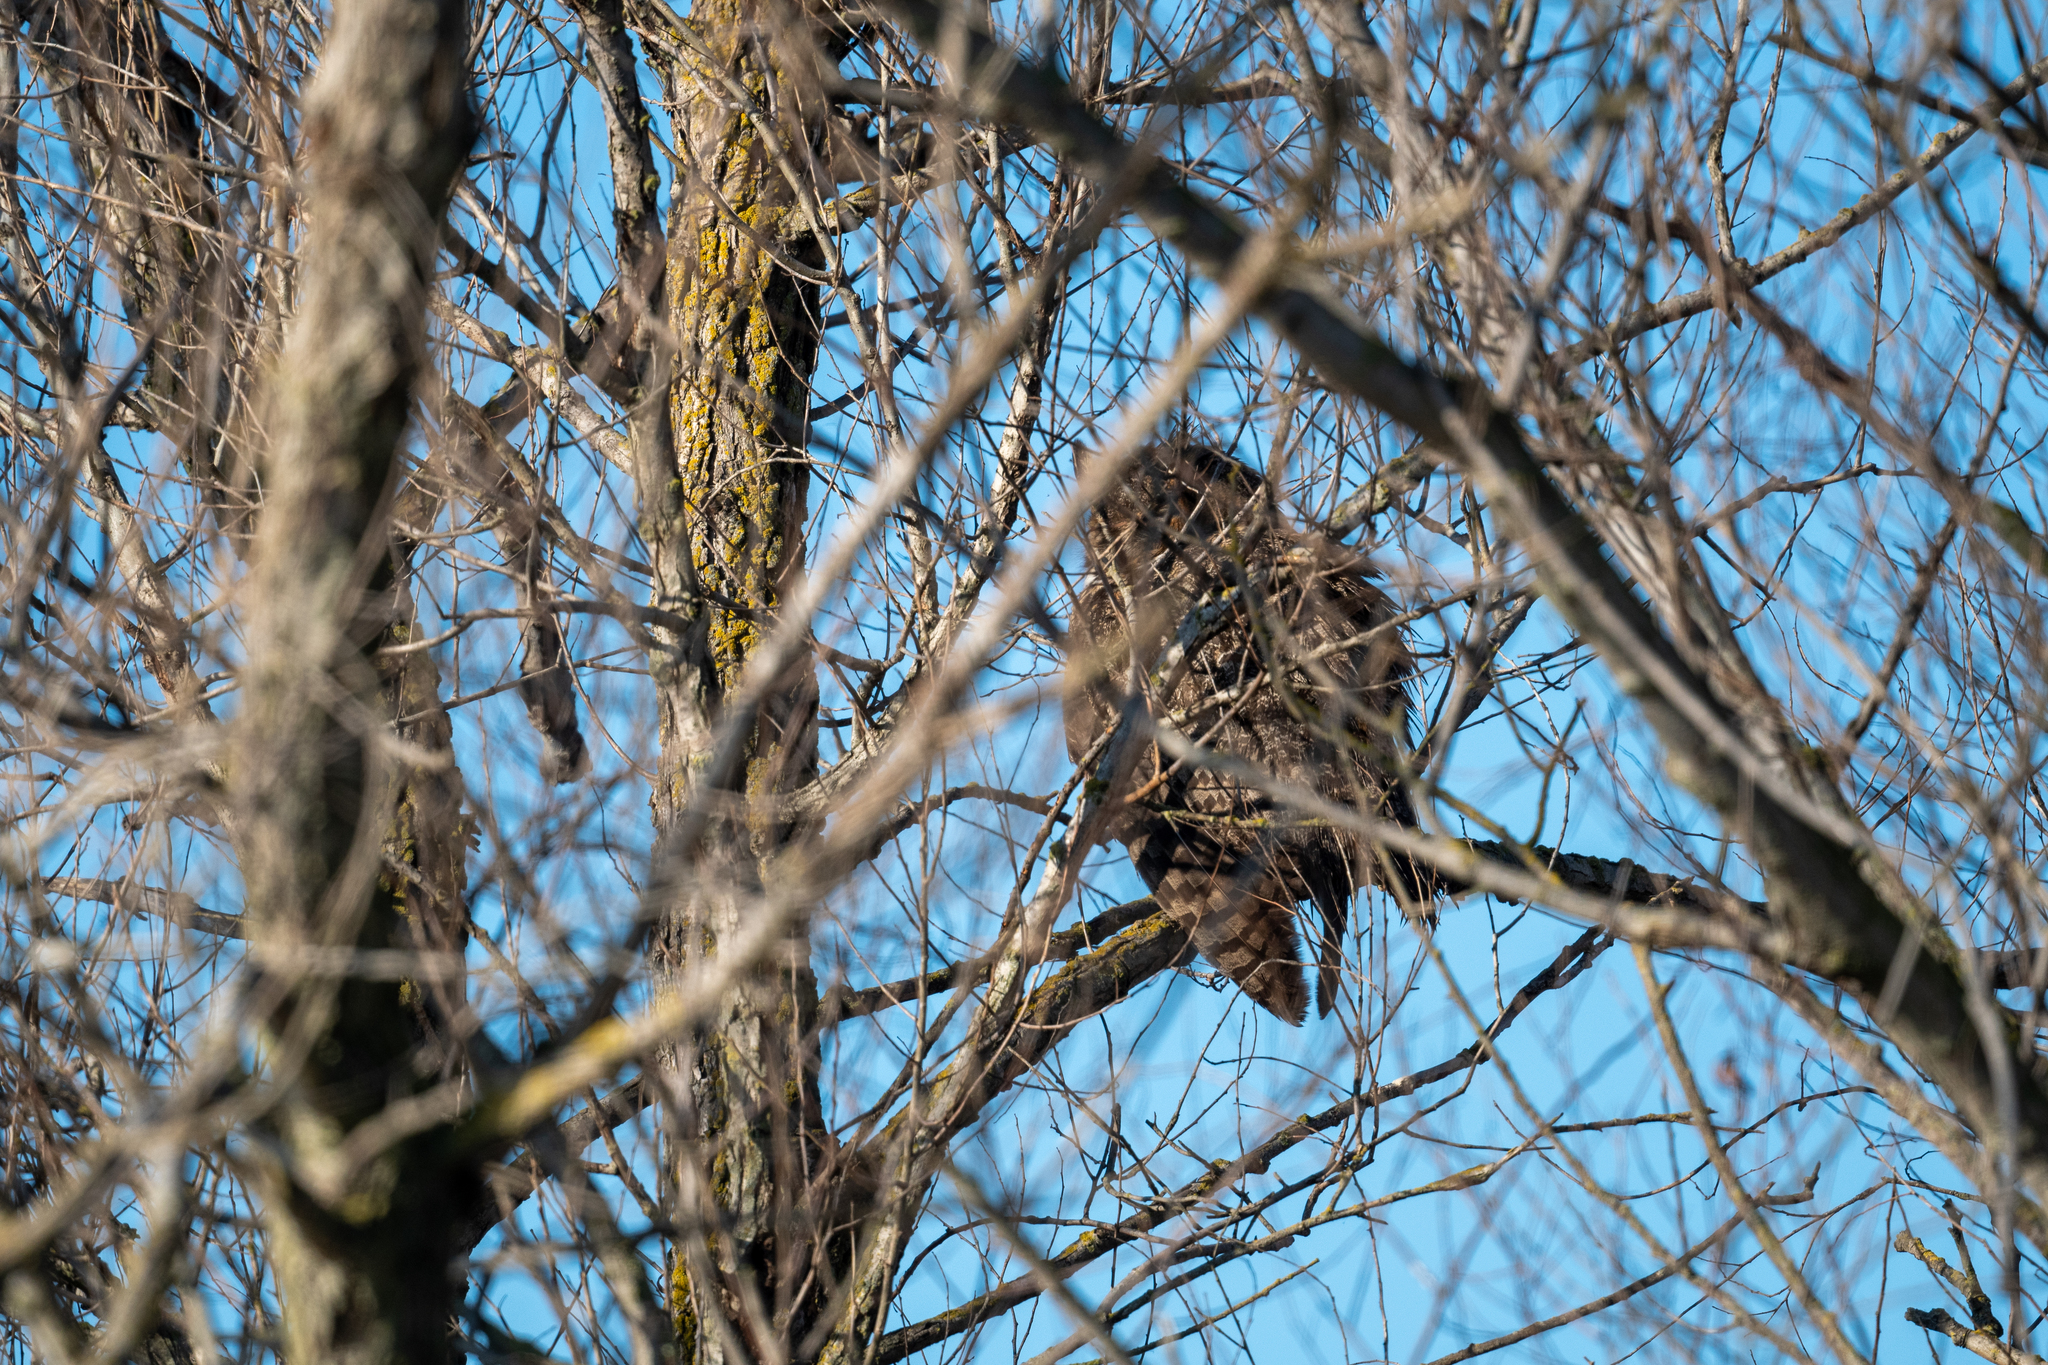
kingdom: Animalia
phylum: Chordata
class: Aves
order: Strigiformes
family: Strigidae
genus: Bubo
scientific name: Bubo virginianus
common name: Great horned owl
